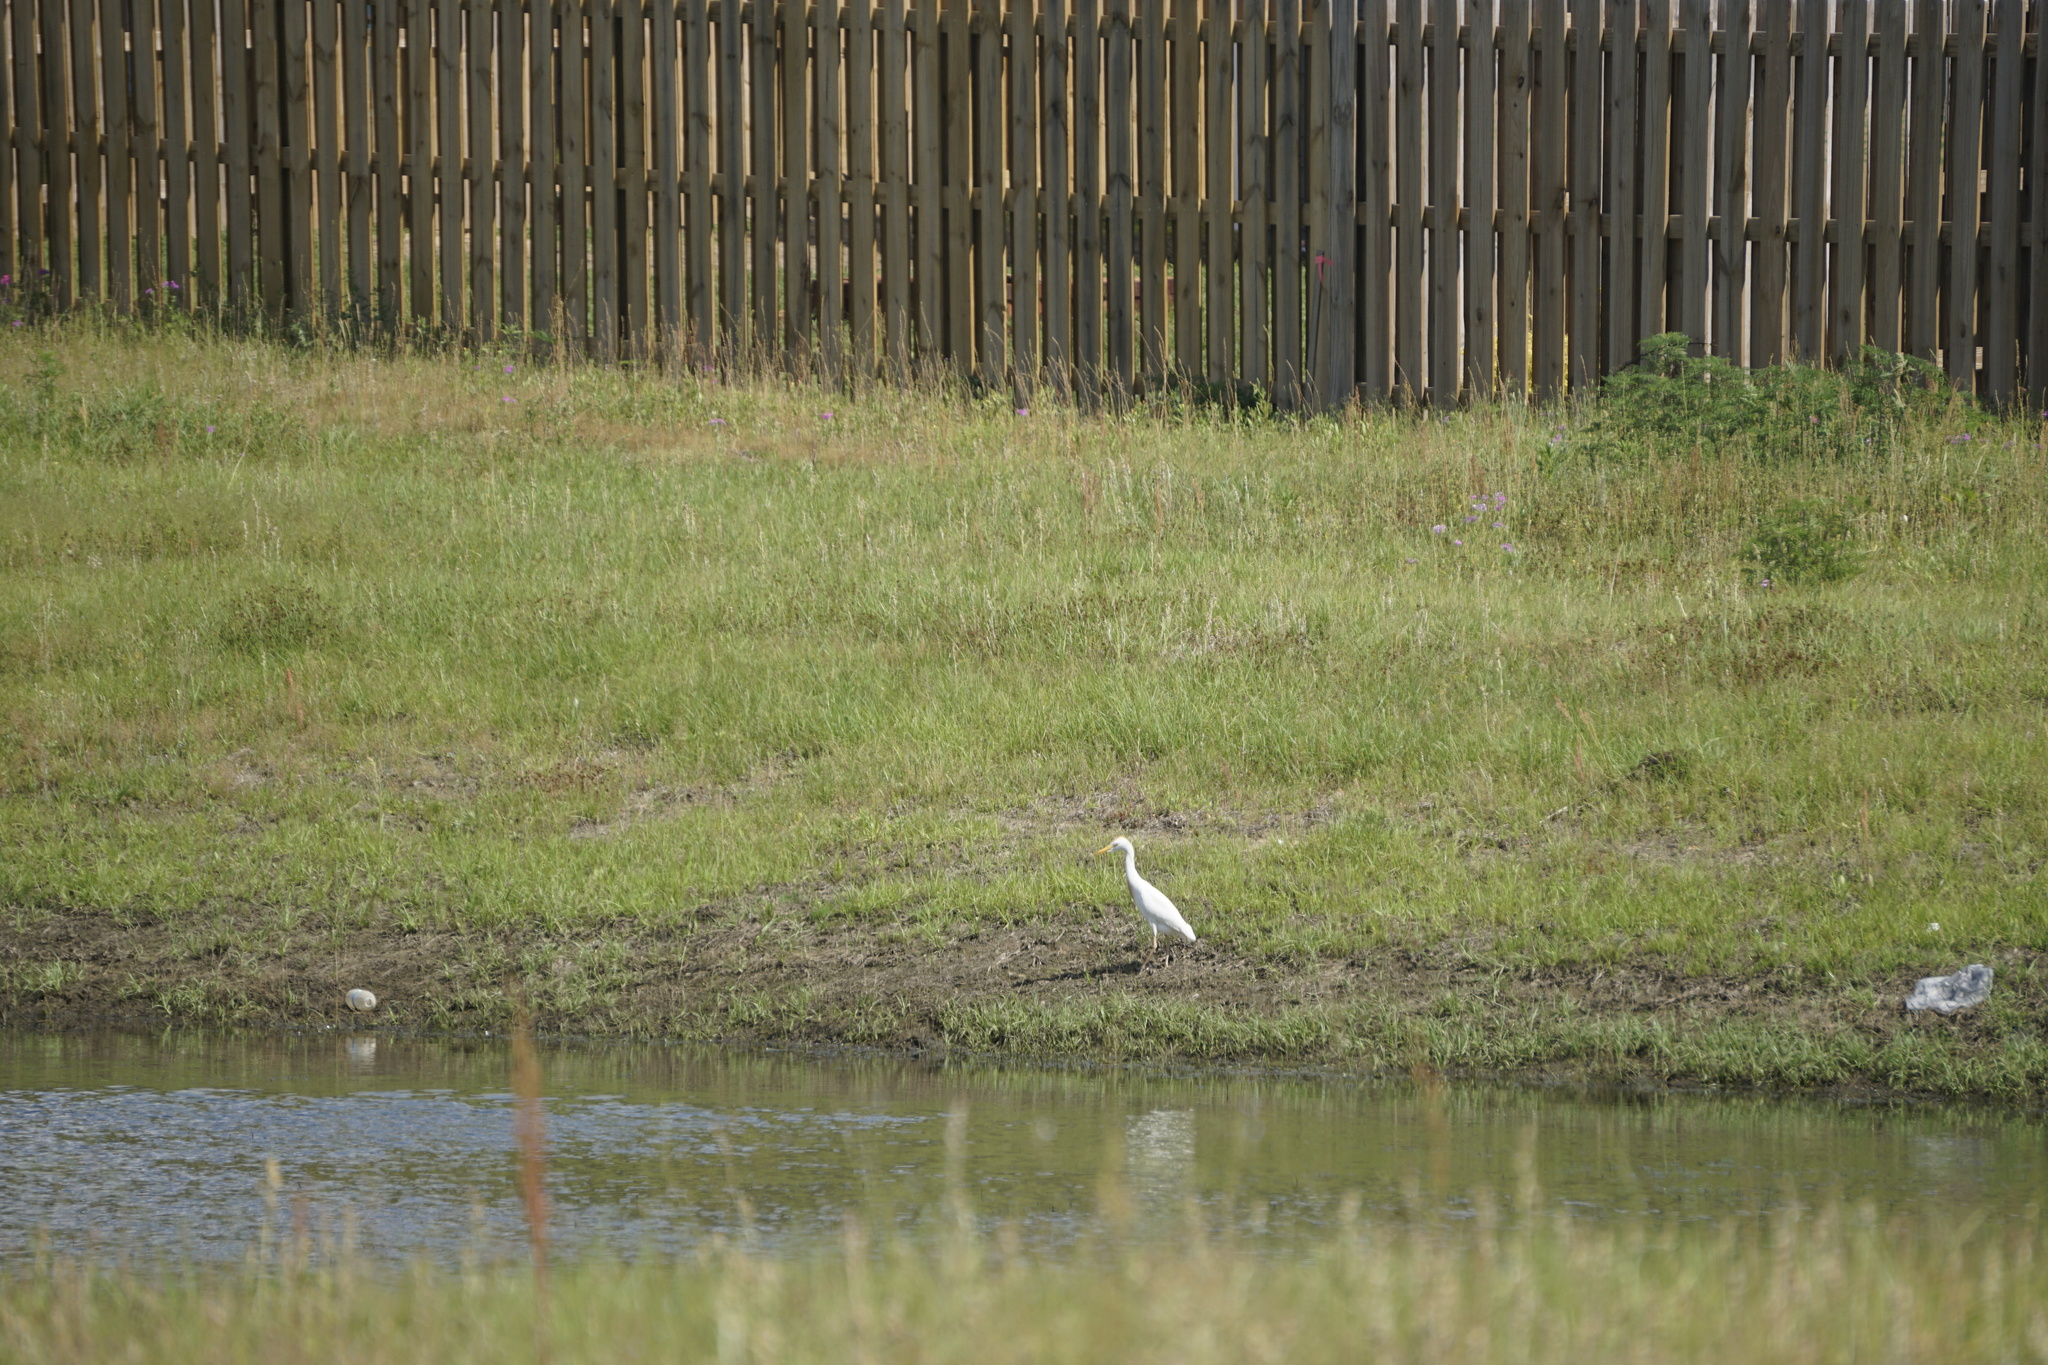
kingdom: Animalia
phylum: Chordata
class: Aves
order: Pelecaniformes
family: Ardeidae
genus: Bubulcus
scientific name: Bubulcus ibis
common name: Cattle egret
